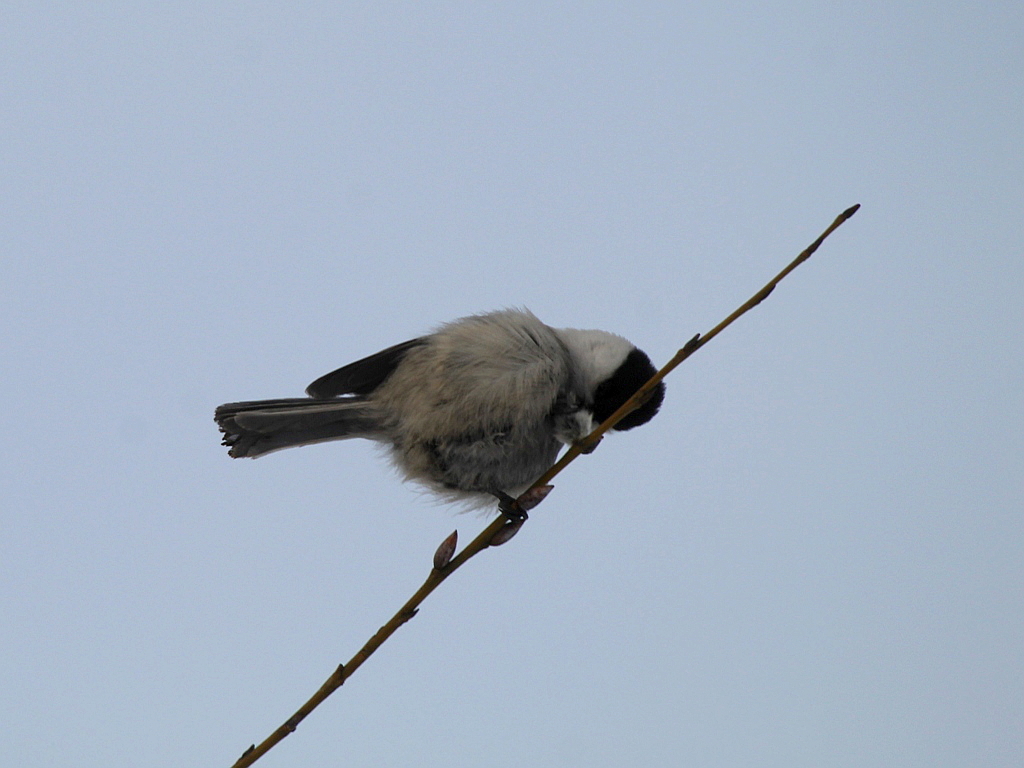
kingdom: Animalia
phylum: Chordata
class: Aves
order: Passeriformes
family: Paridae
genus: Poecile
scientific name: Poecile montanus
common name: Willow tit
